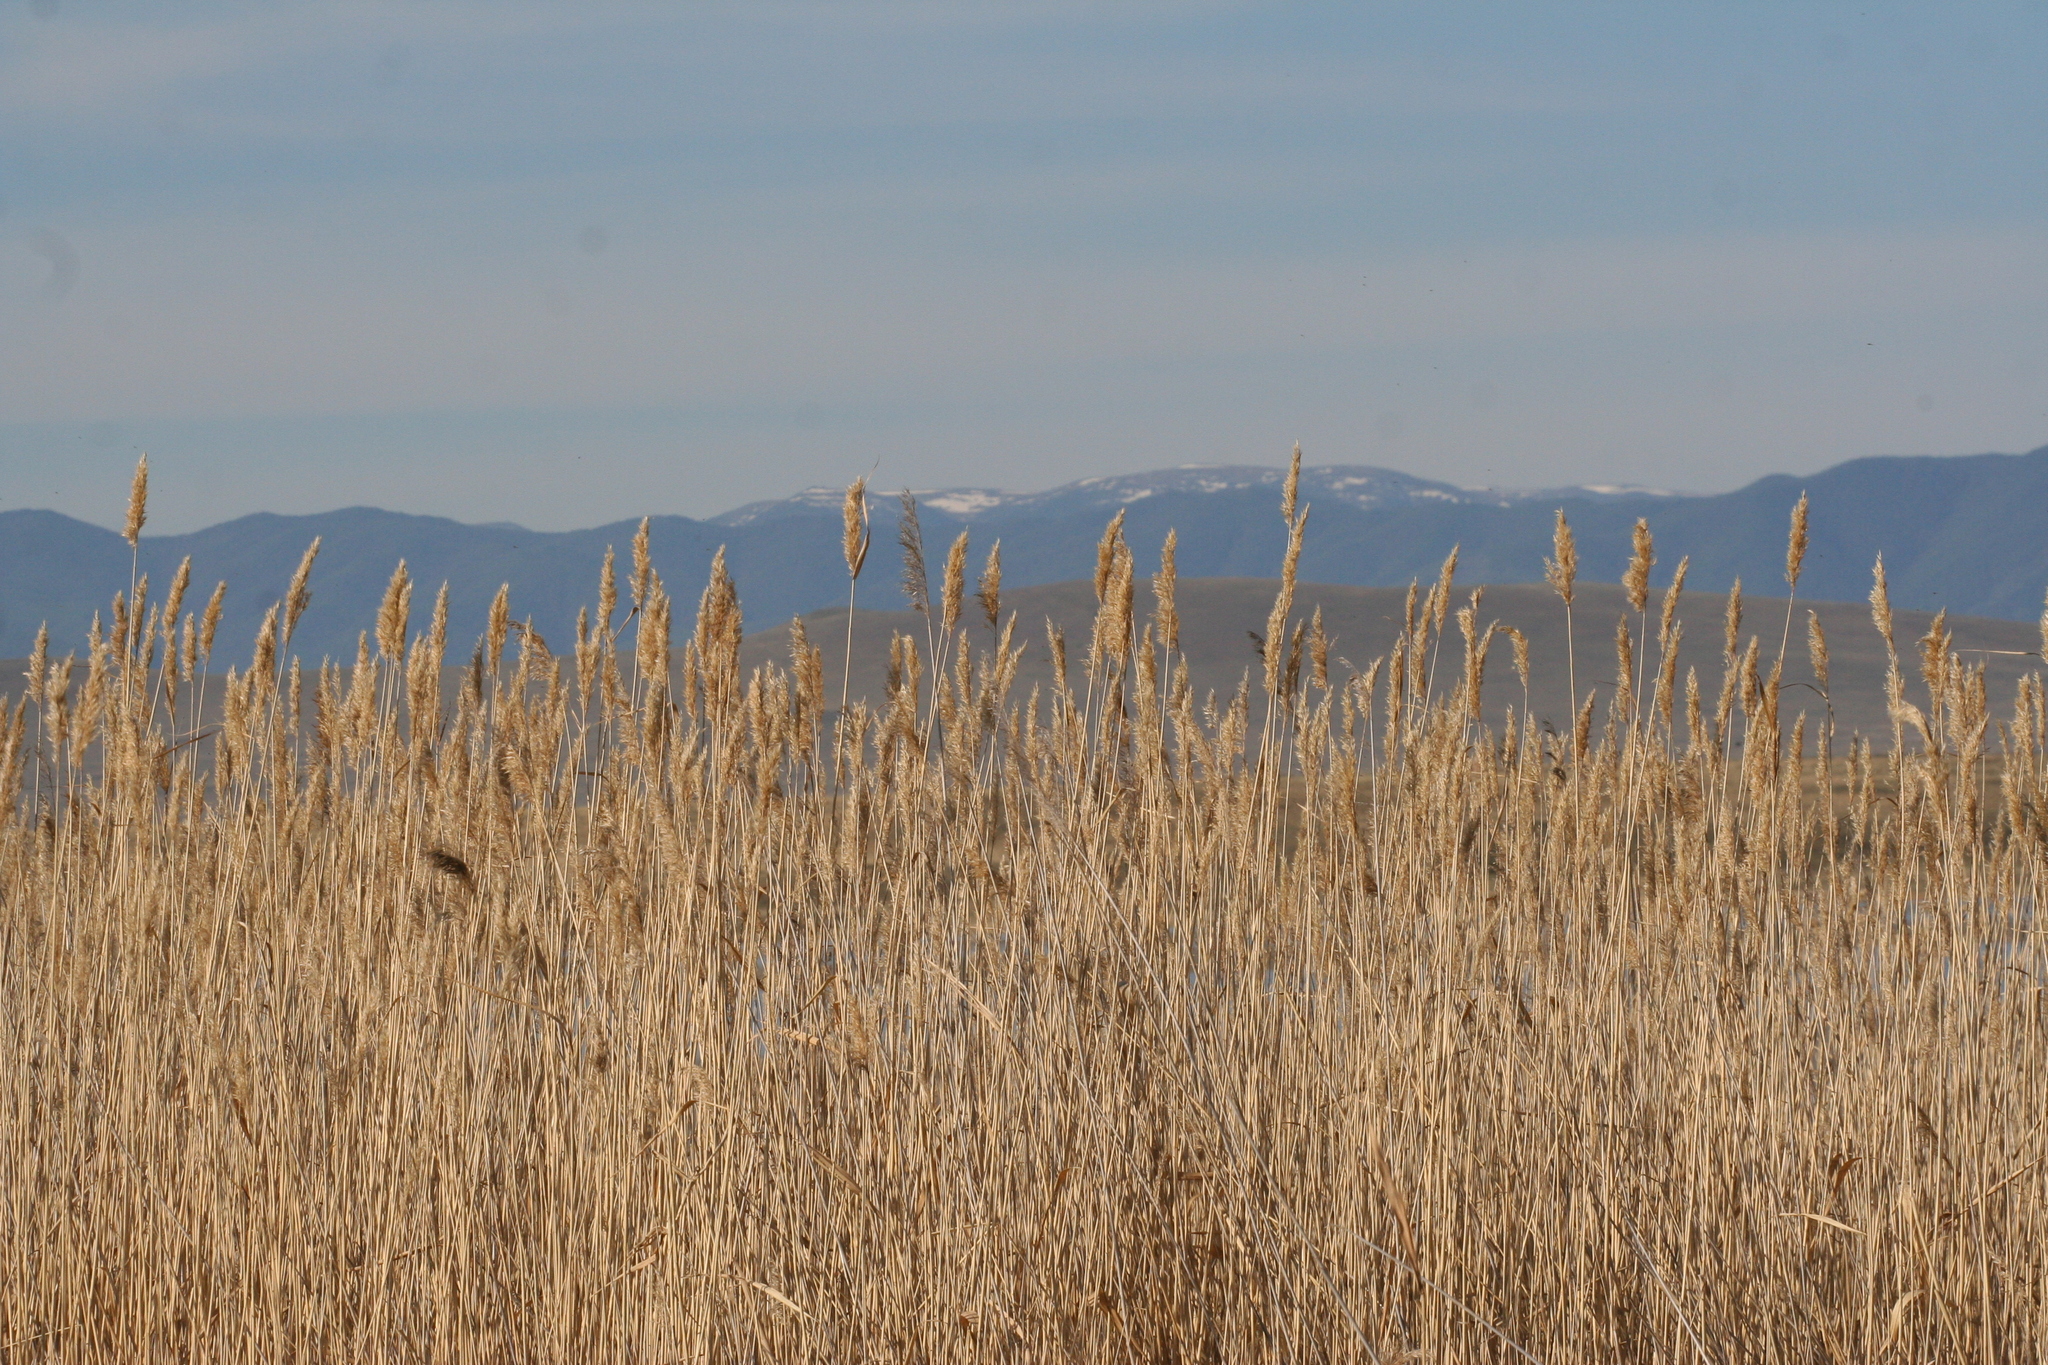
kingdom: Plantae
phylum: Tracheophyta
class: Liliopsida
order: Poales
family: Poaceae
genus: Phragmites
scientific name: Phragmites australis
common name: Common reed
